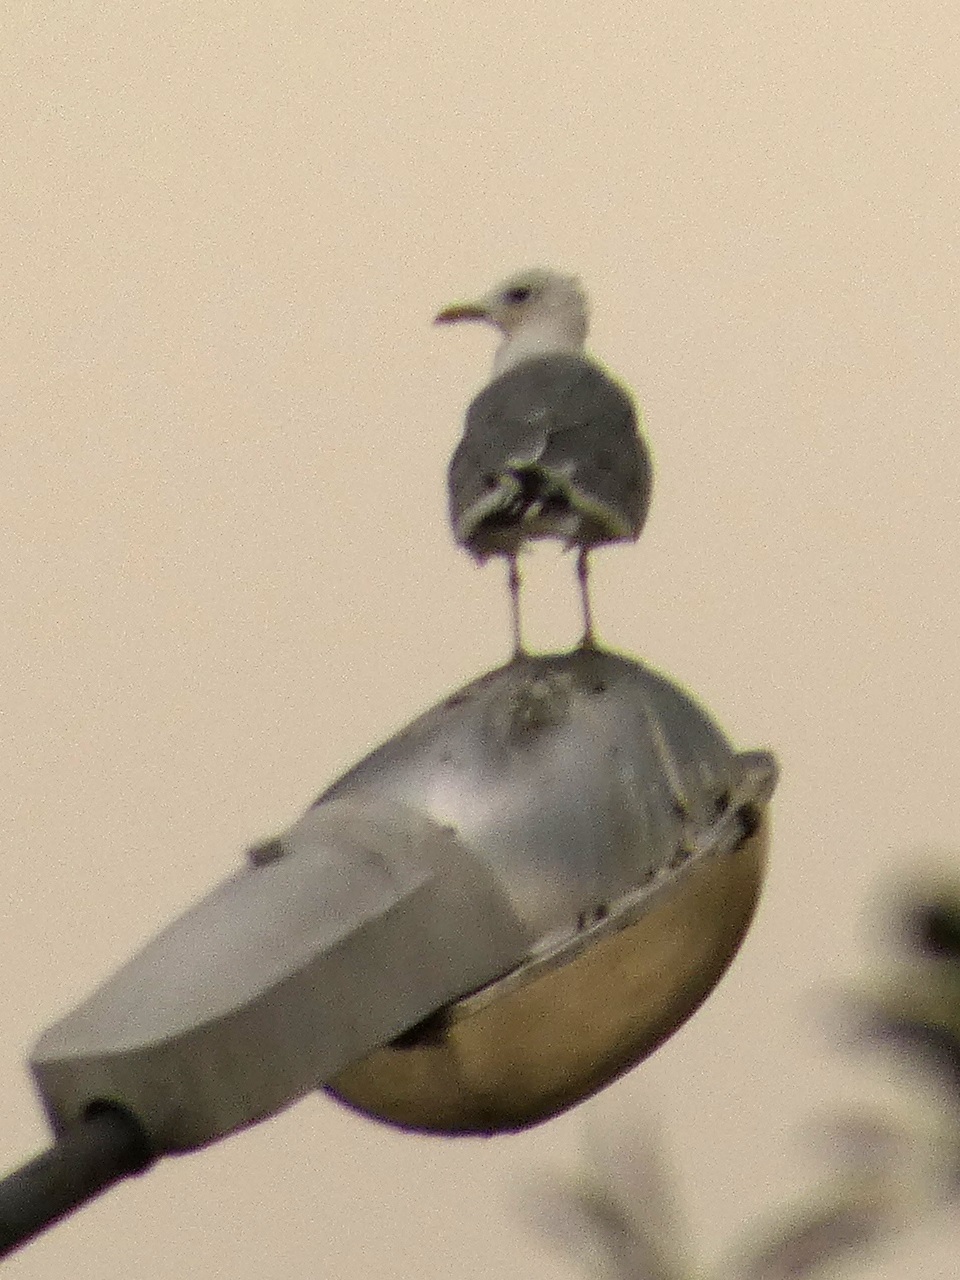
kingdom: Animalia
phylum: Chordata
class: Aves
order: Charadriiformes
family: Laridae
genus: Larus
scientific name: Larus canus
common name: Mew gull
